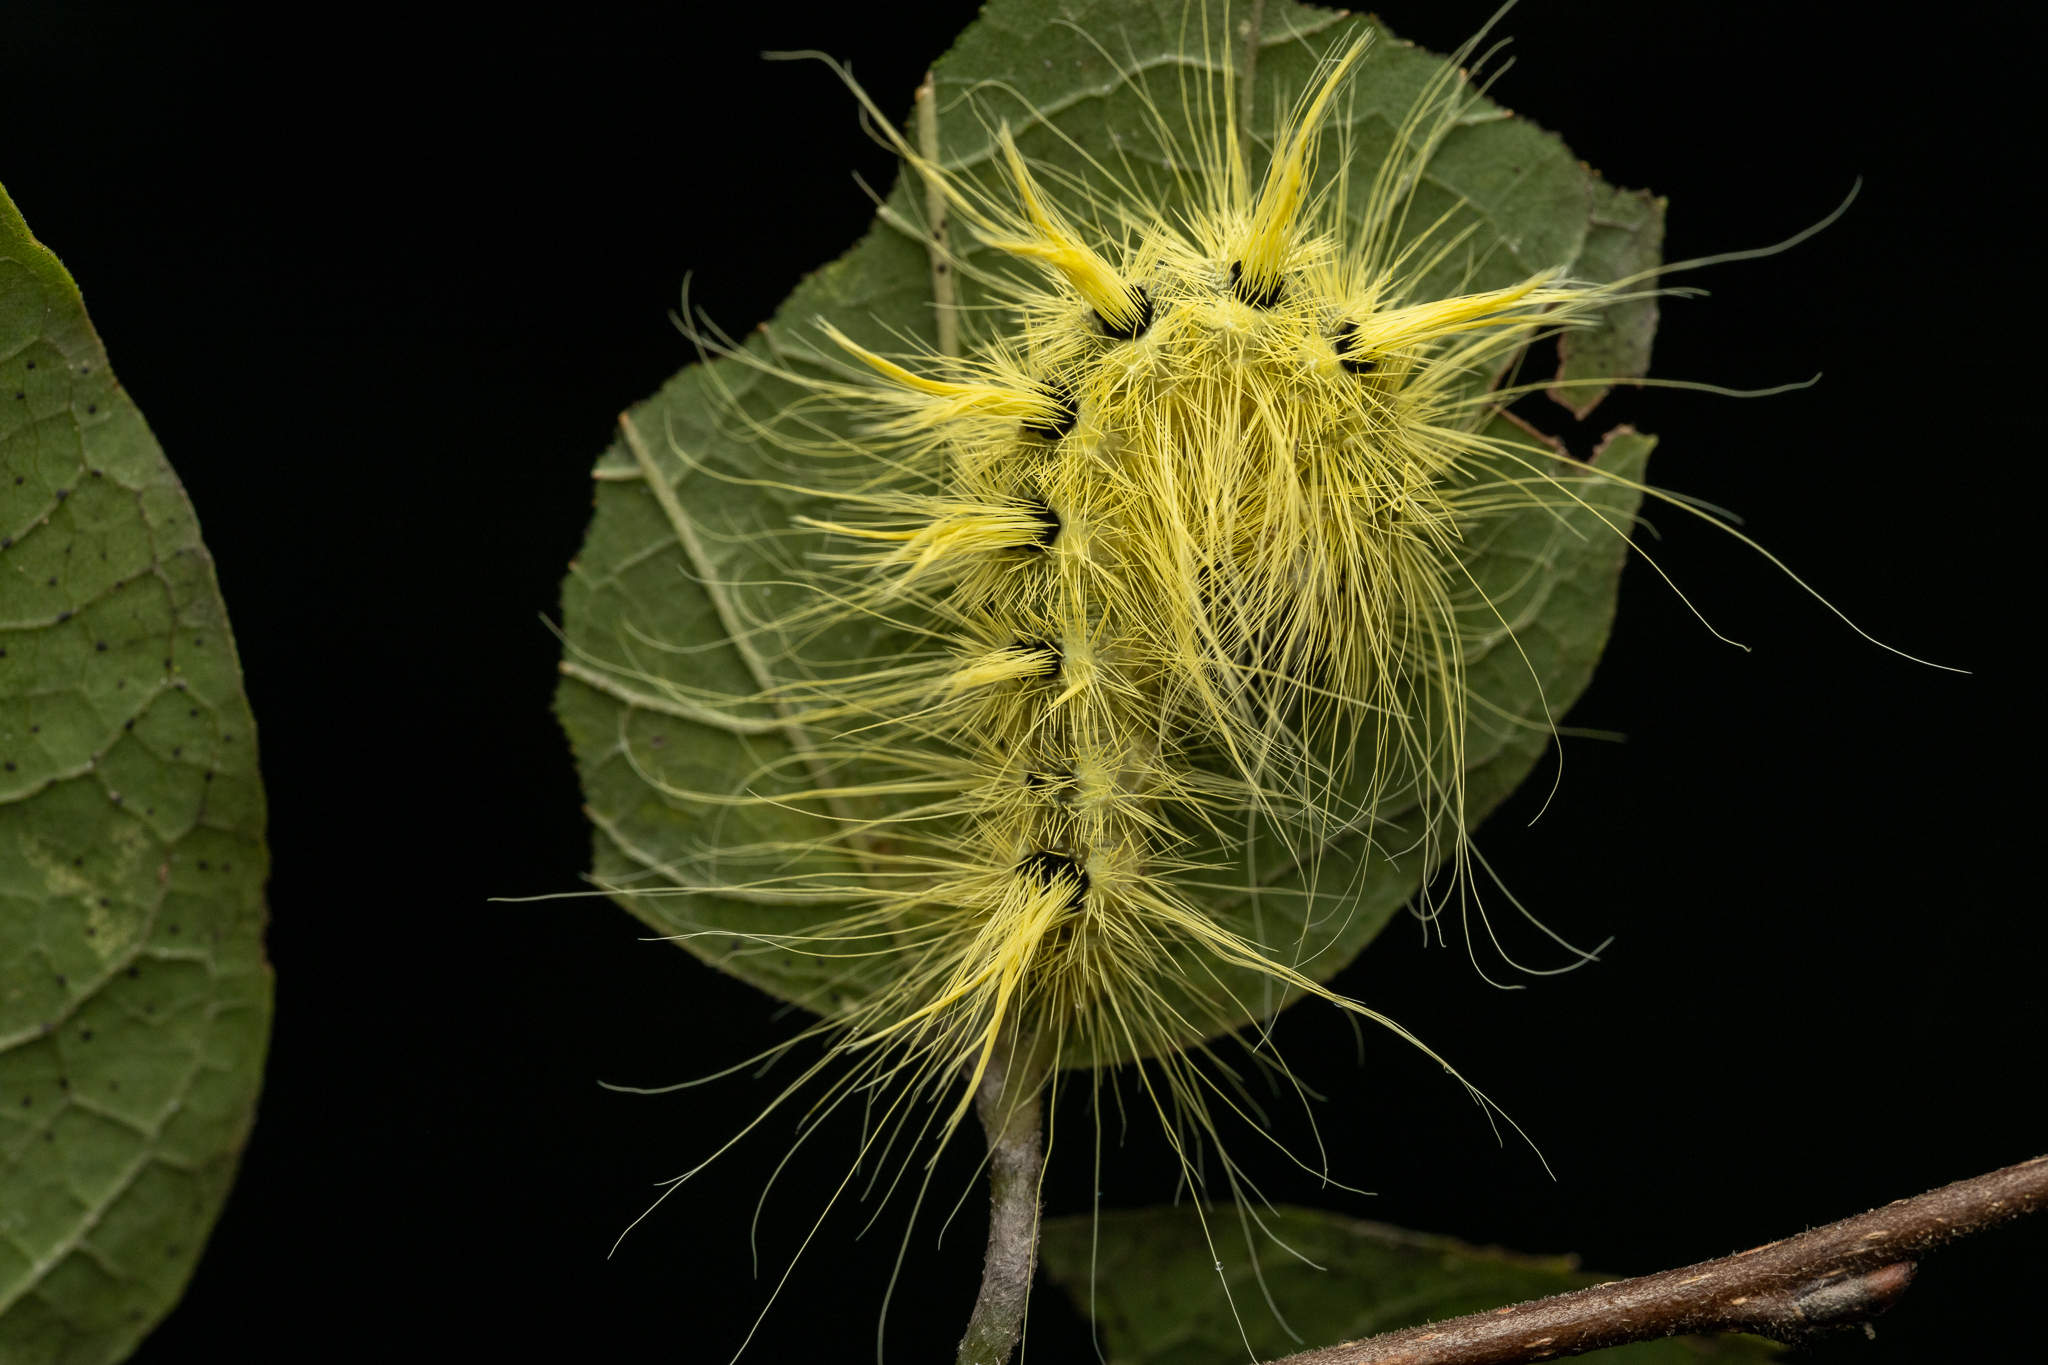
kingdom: Animalia
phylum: Arthropoda
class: Insecta
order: Lepidoptera
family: Noctuidae
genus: Acronicta
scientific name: Acronicta rubricoma
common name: Hackberry dagger
